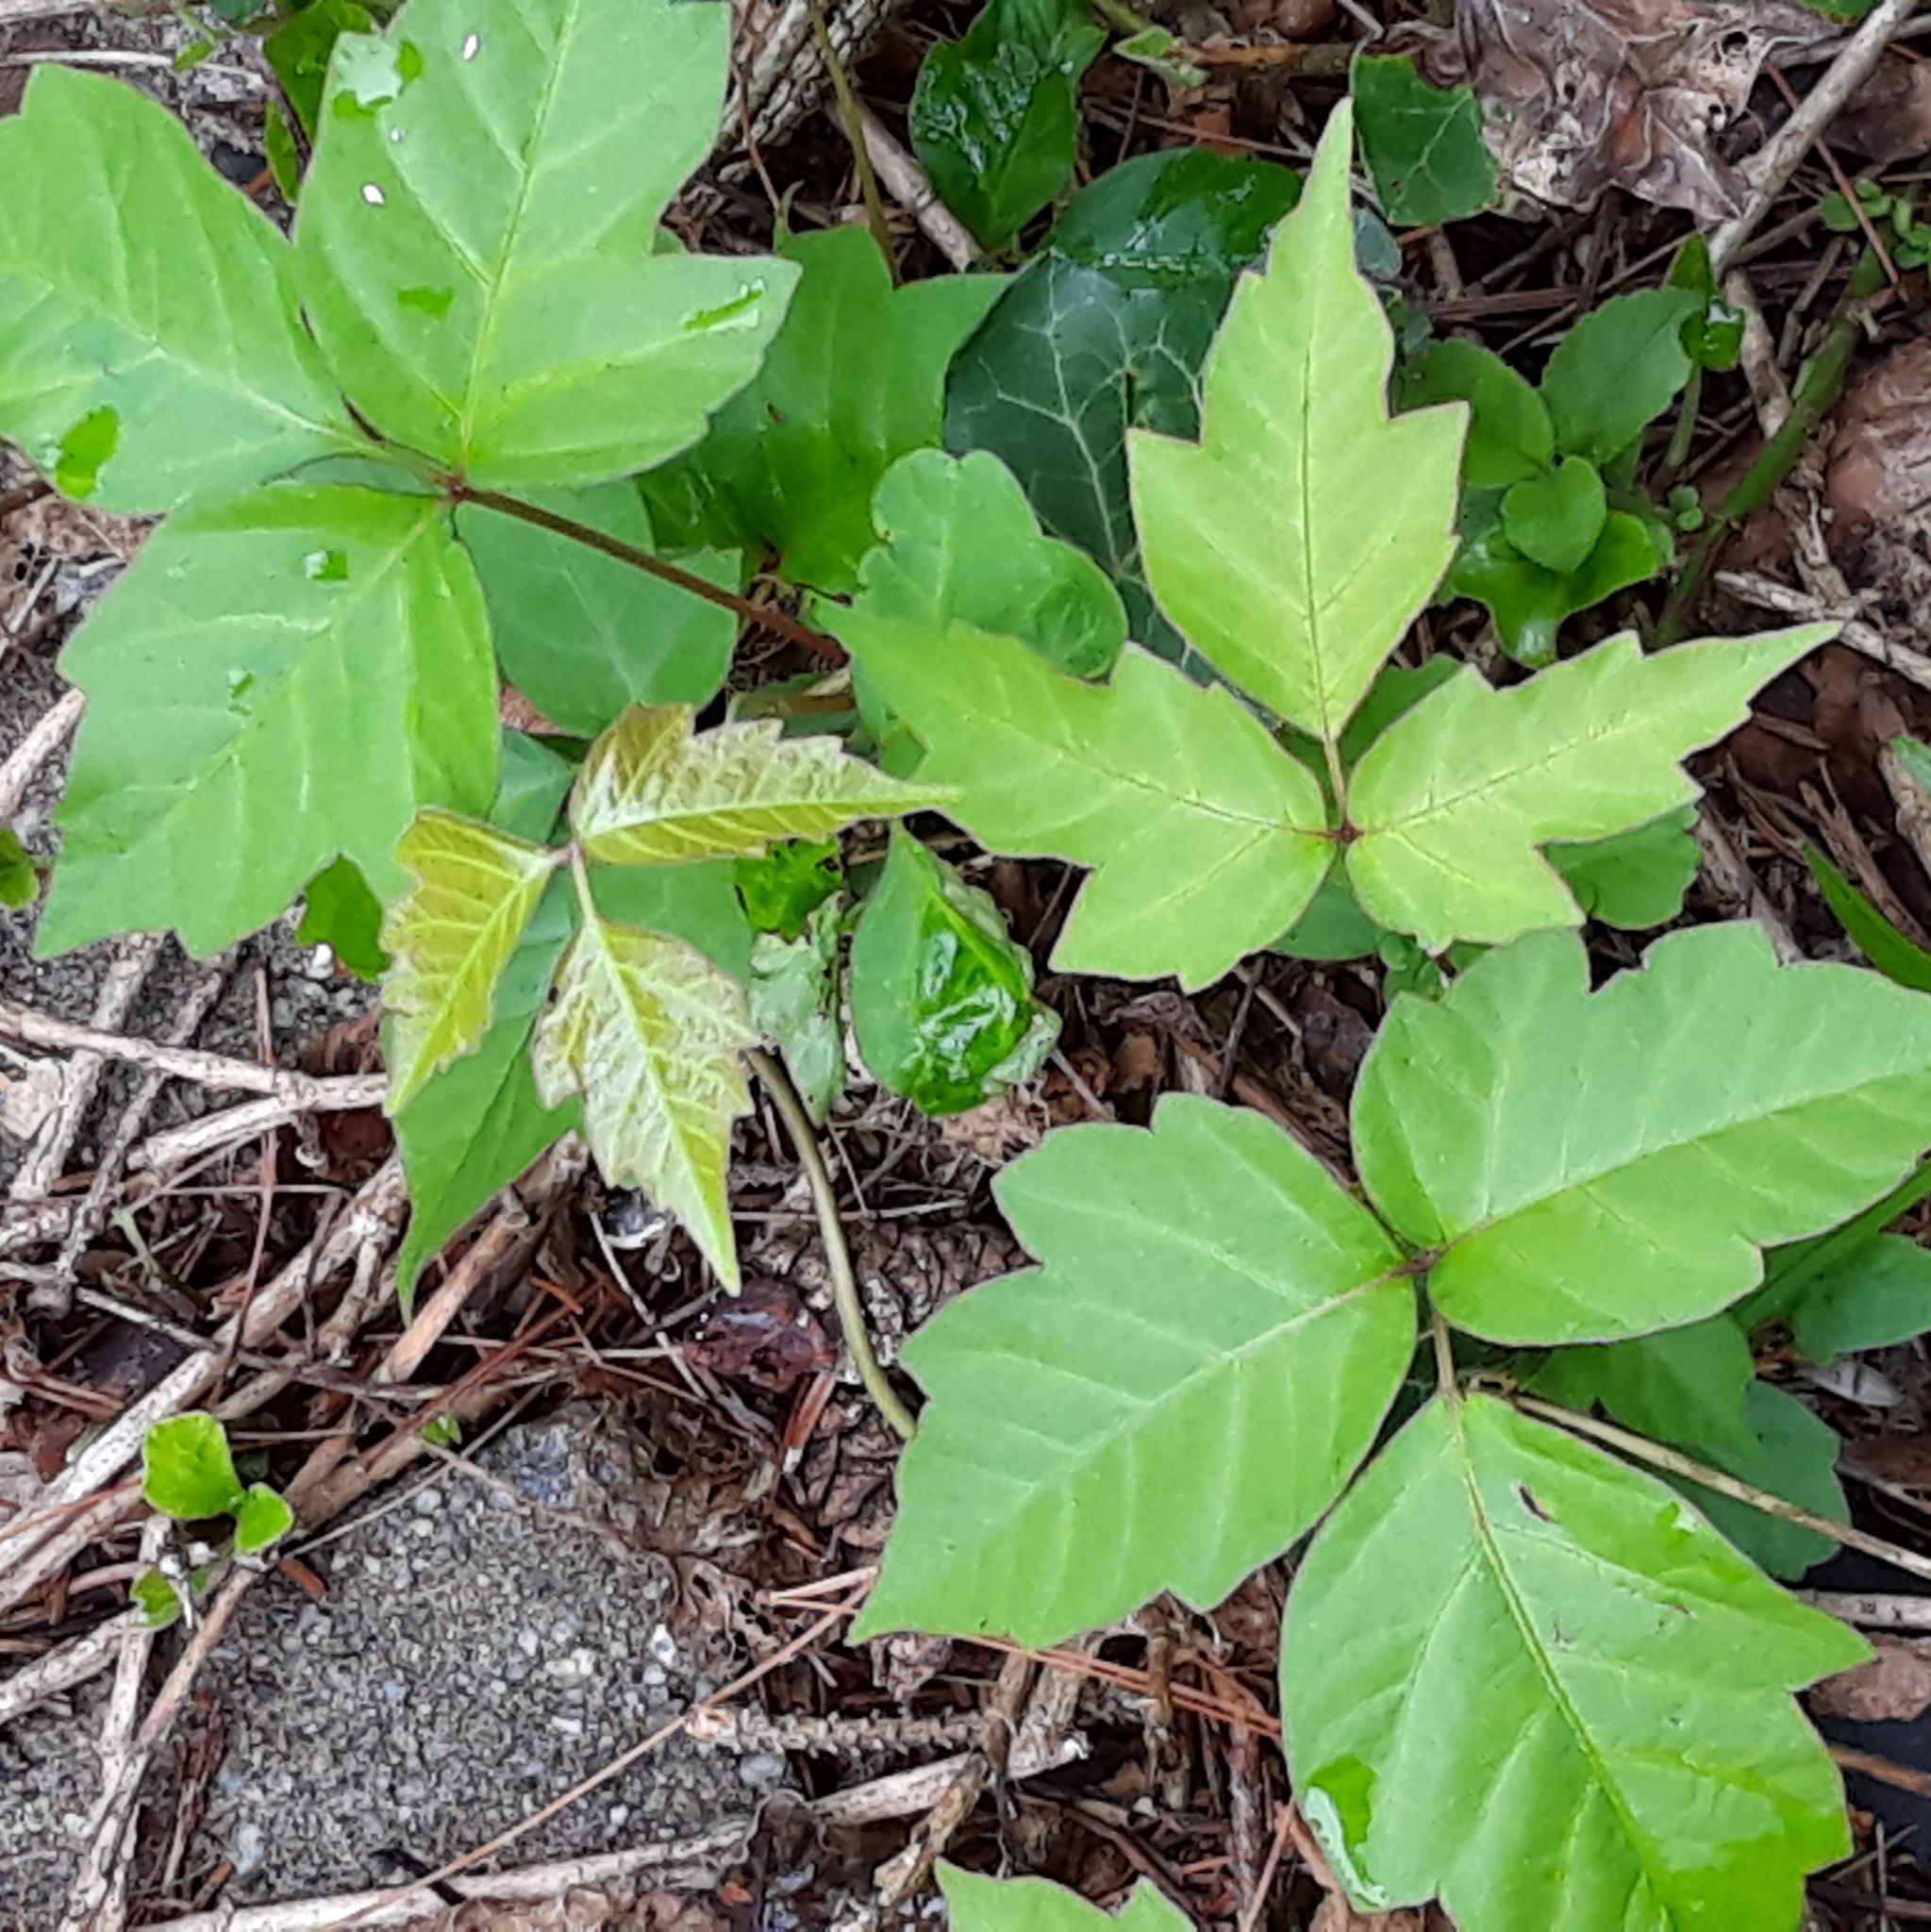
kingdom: Plantae
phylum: Tracheophyta
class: Magnoliopsida
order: Sapindales
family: Anacardiaceae
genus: Toxicodendron
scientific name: Toxicodendron radicans
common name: Poison ivy
